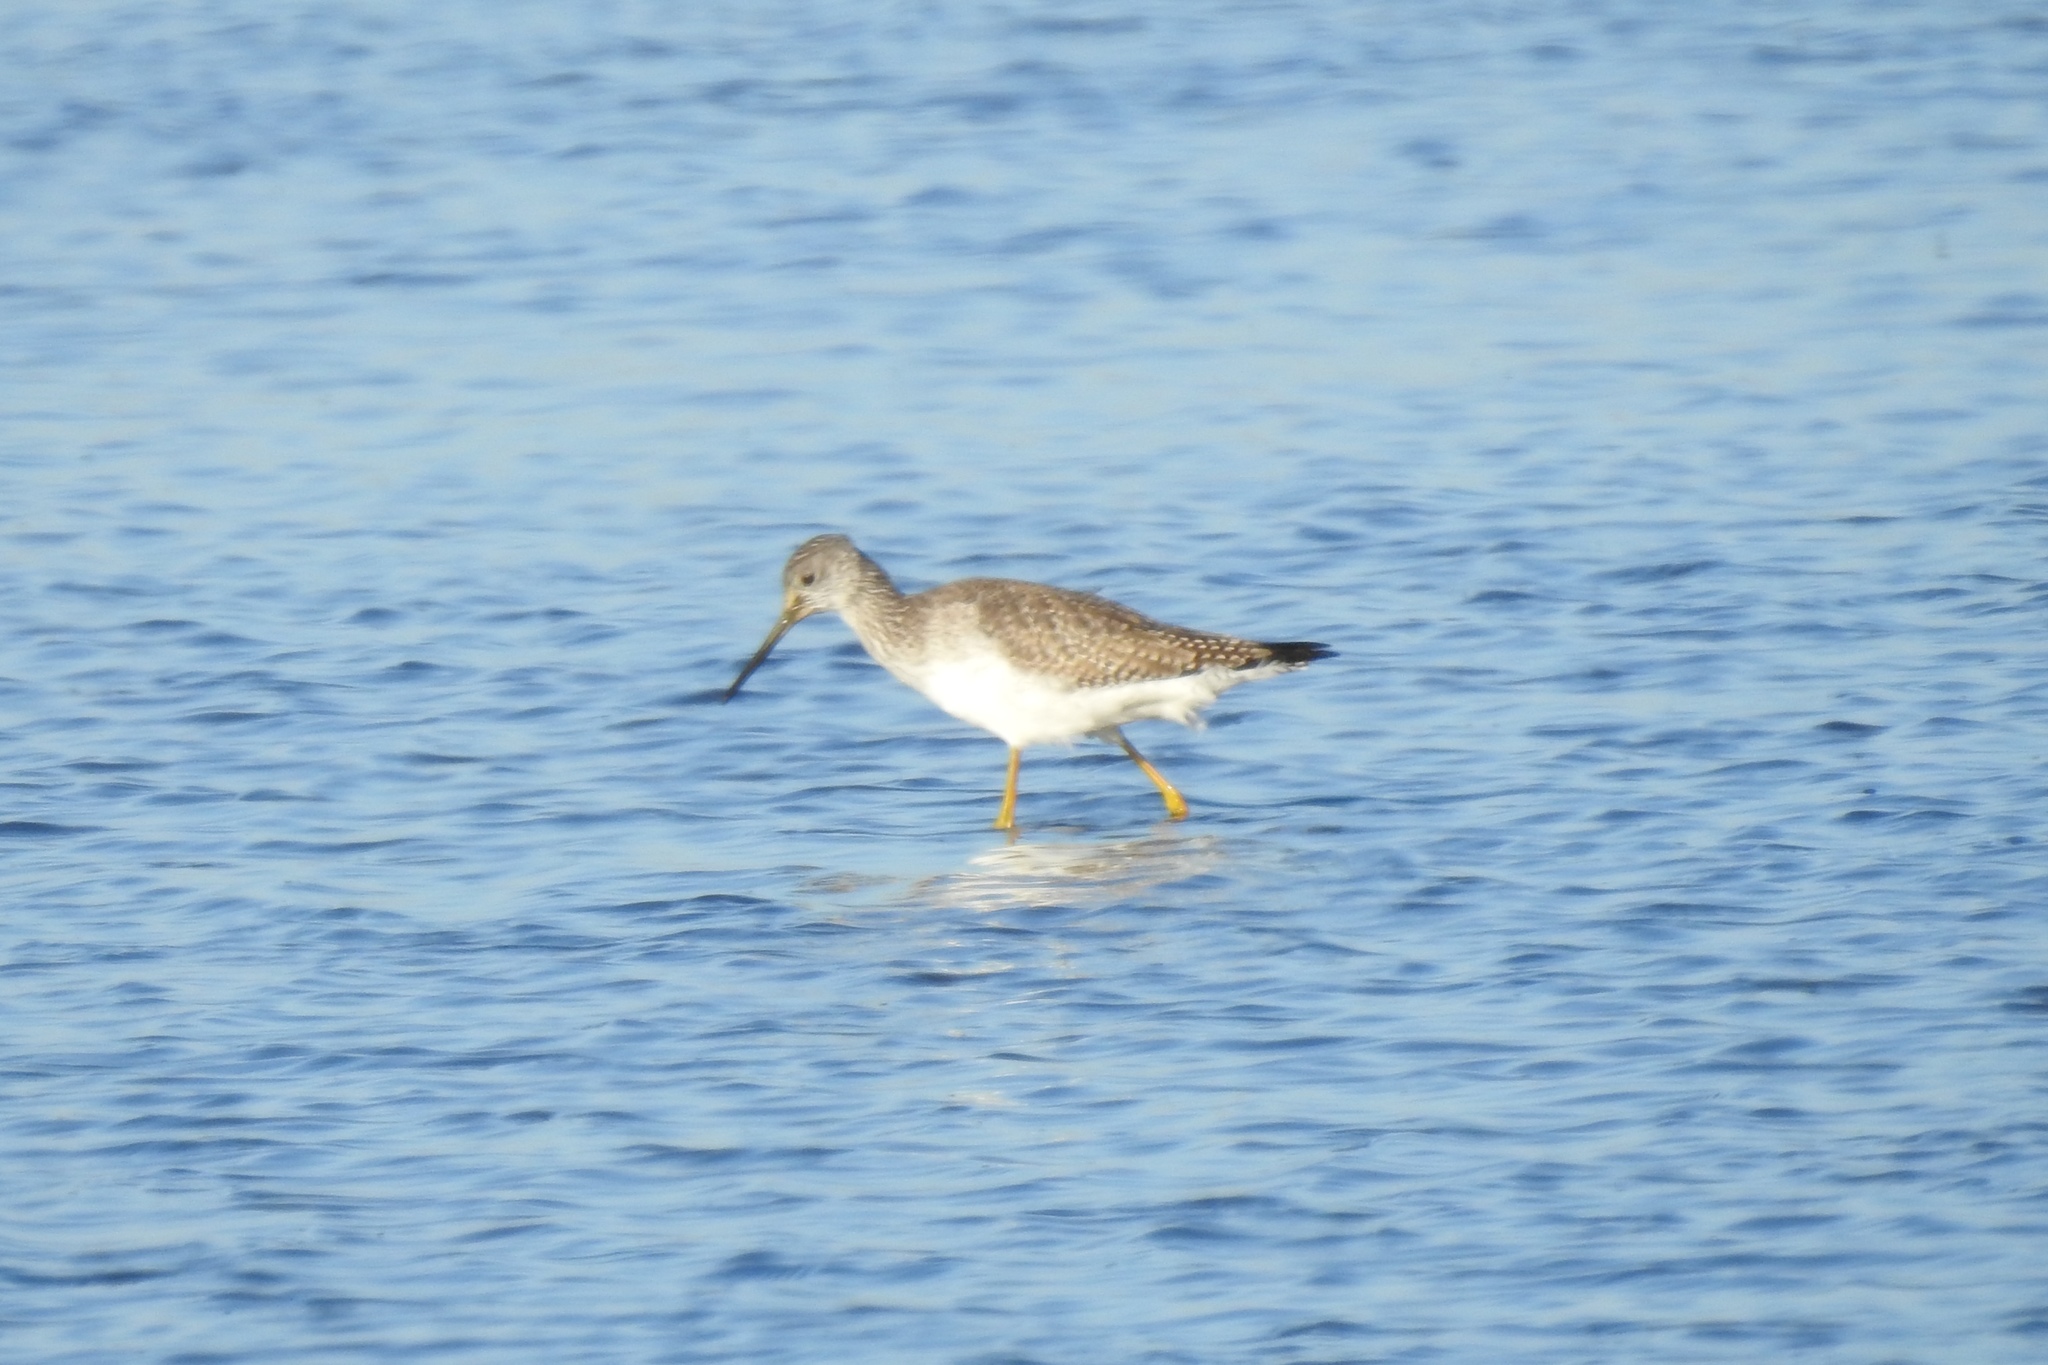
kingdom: Animalia
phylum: Chordata
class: Aves
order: Charadriiformes
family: Scolopacidae
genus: Tringa
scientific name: Tringa melanoleuca
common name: Greater yellowlegs
